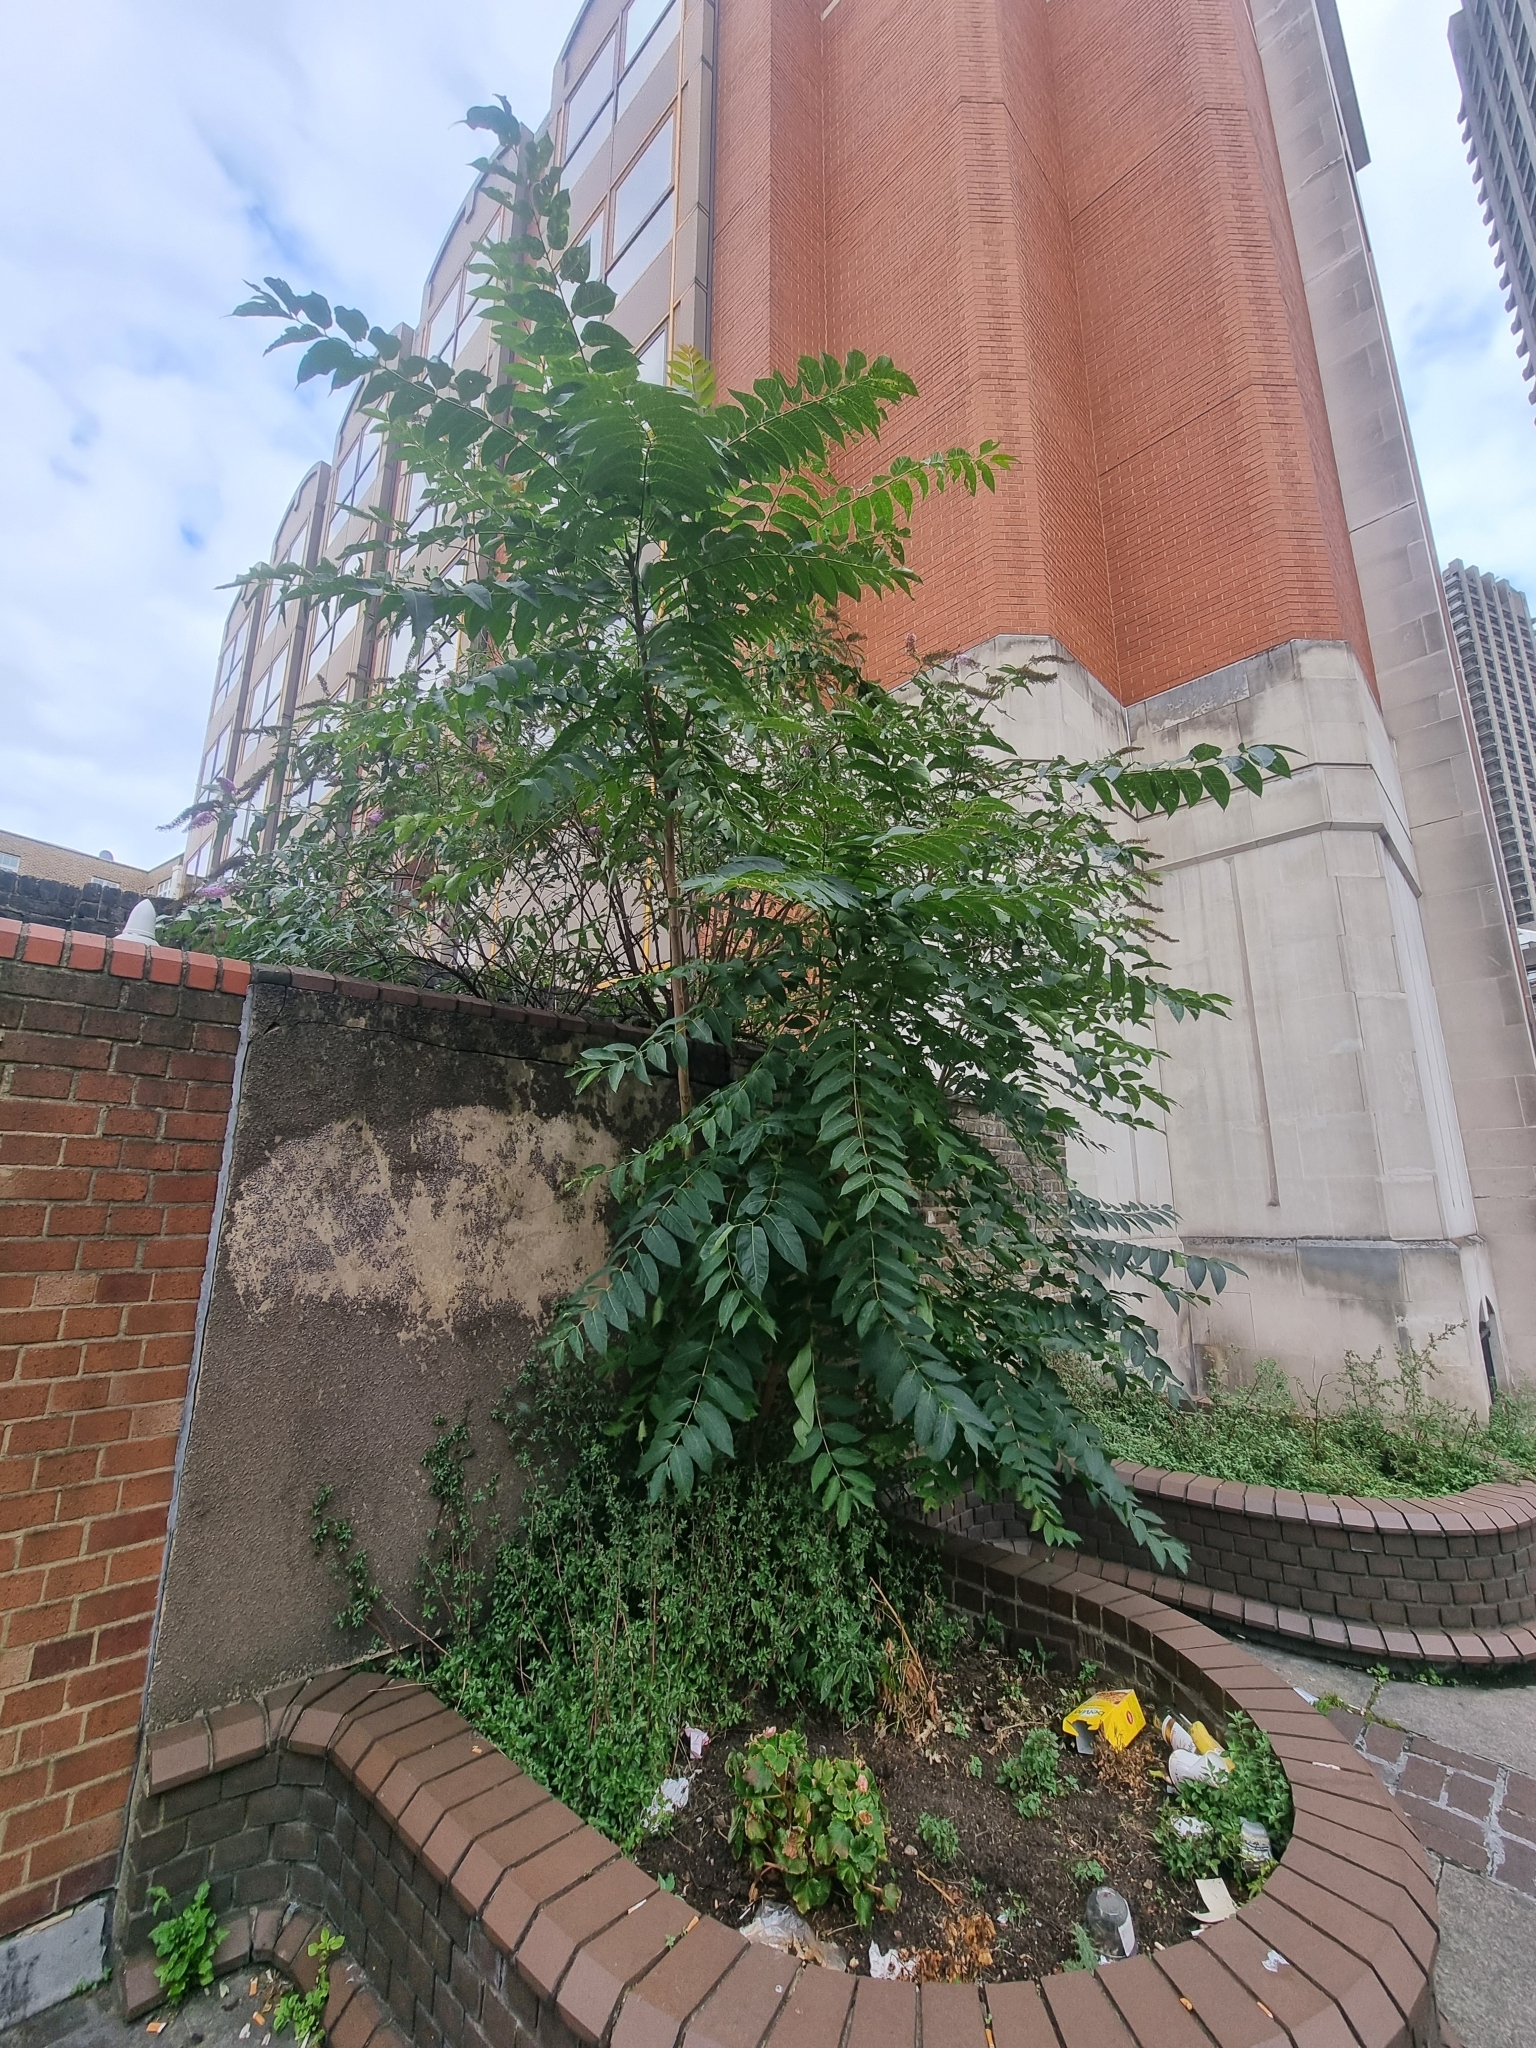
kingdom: Plantae
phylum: Tracheophyta
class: Magnoliopsida
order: Sapindales
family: Simaroubaceae
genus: Ailanthus
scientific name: Ailanthus altissima
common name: Tree-of-heaven
